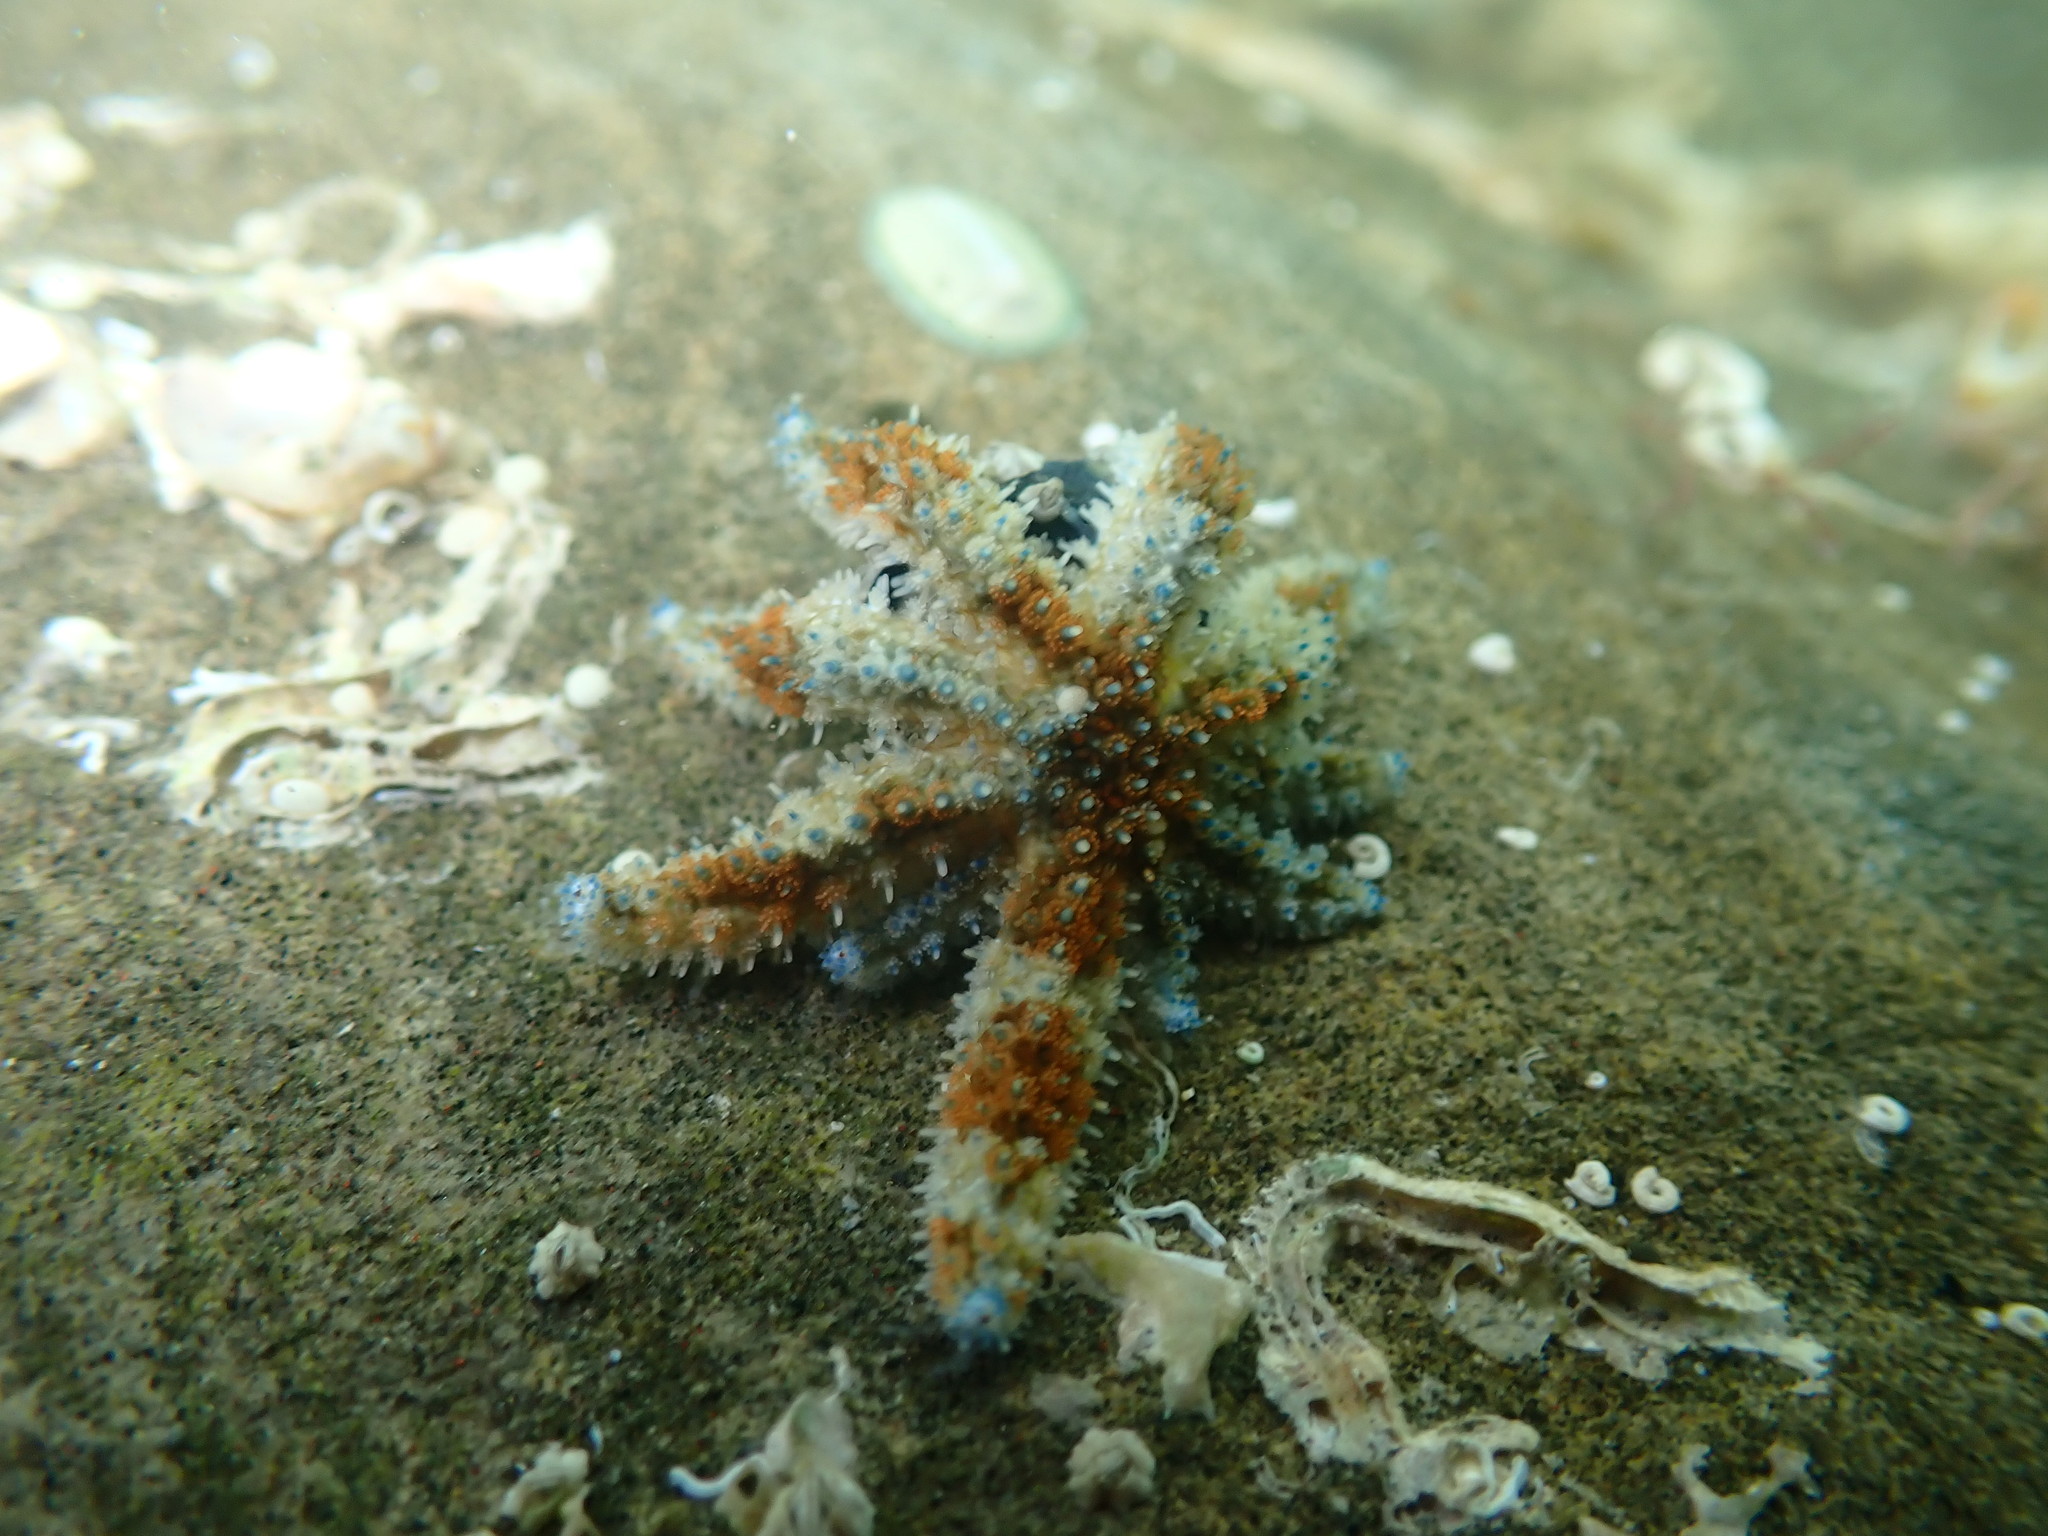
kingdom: Animalia
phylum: Echinodermata
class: Asteroidea
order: Forcipulatida
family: Asteriidae
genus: Coscinasterias
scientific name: Coscinasterias muricata
